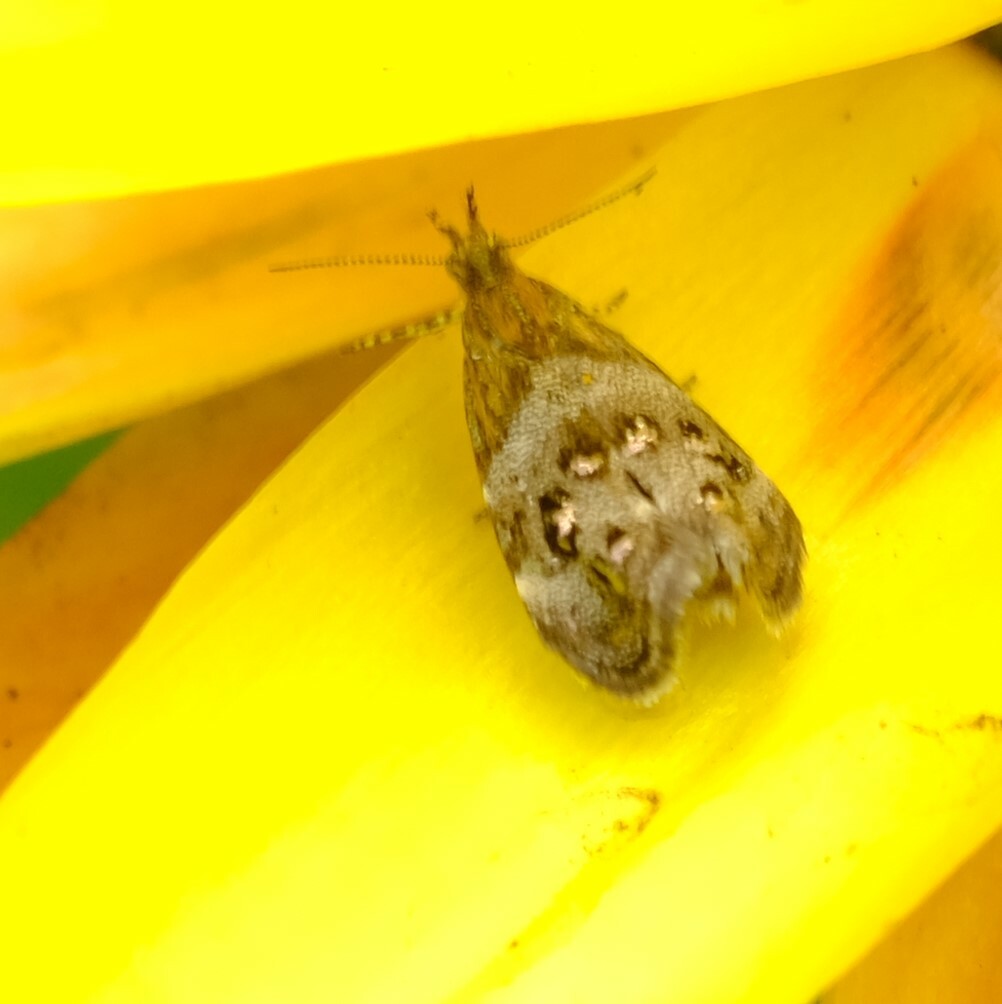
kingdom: Animalia
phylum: Arthropoda
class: Insecta
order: Lepidoptera
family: Choreutidae
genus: Tebenna
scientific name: Tebenna micalis
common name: Vagrant twitcher
